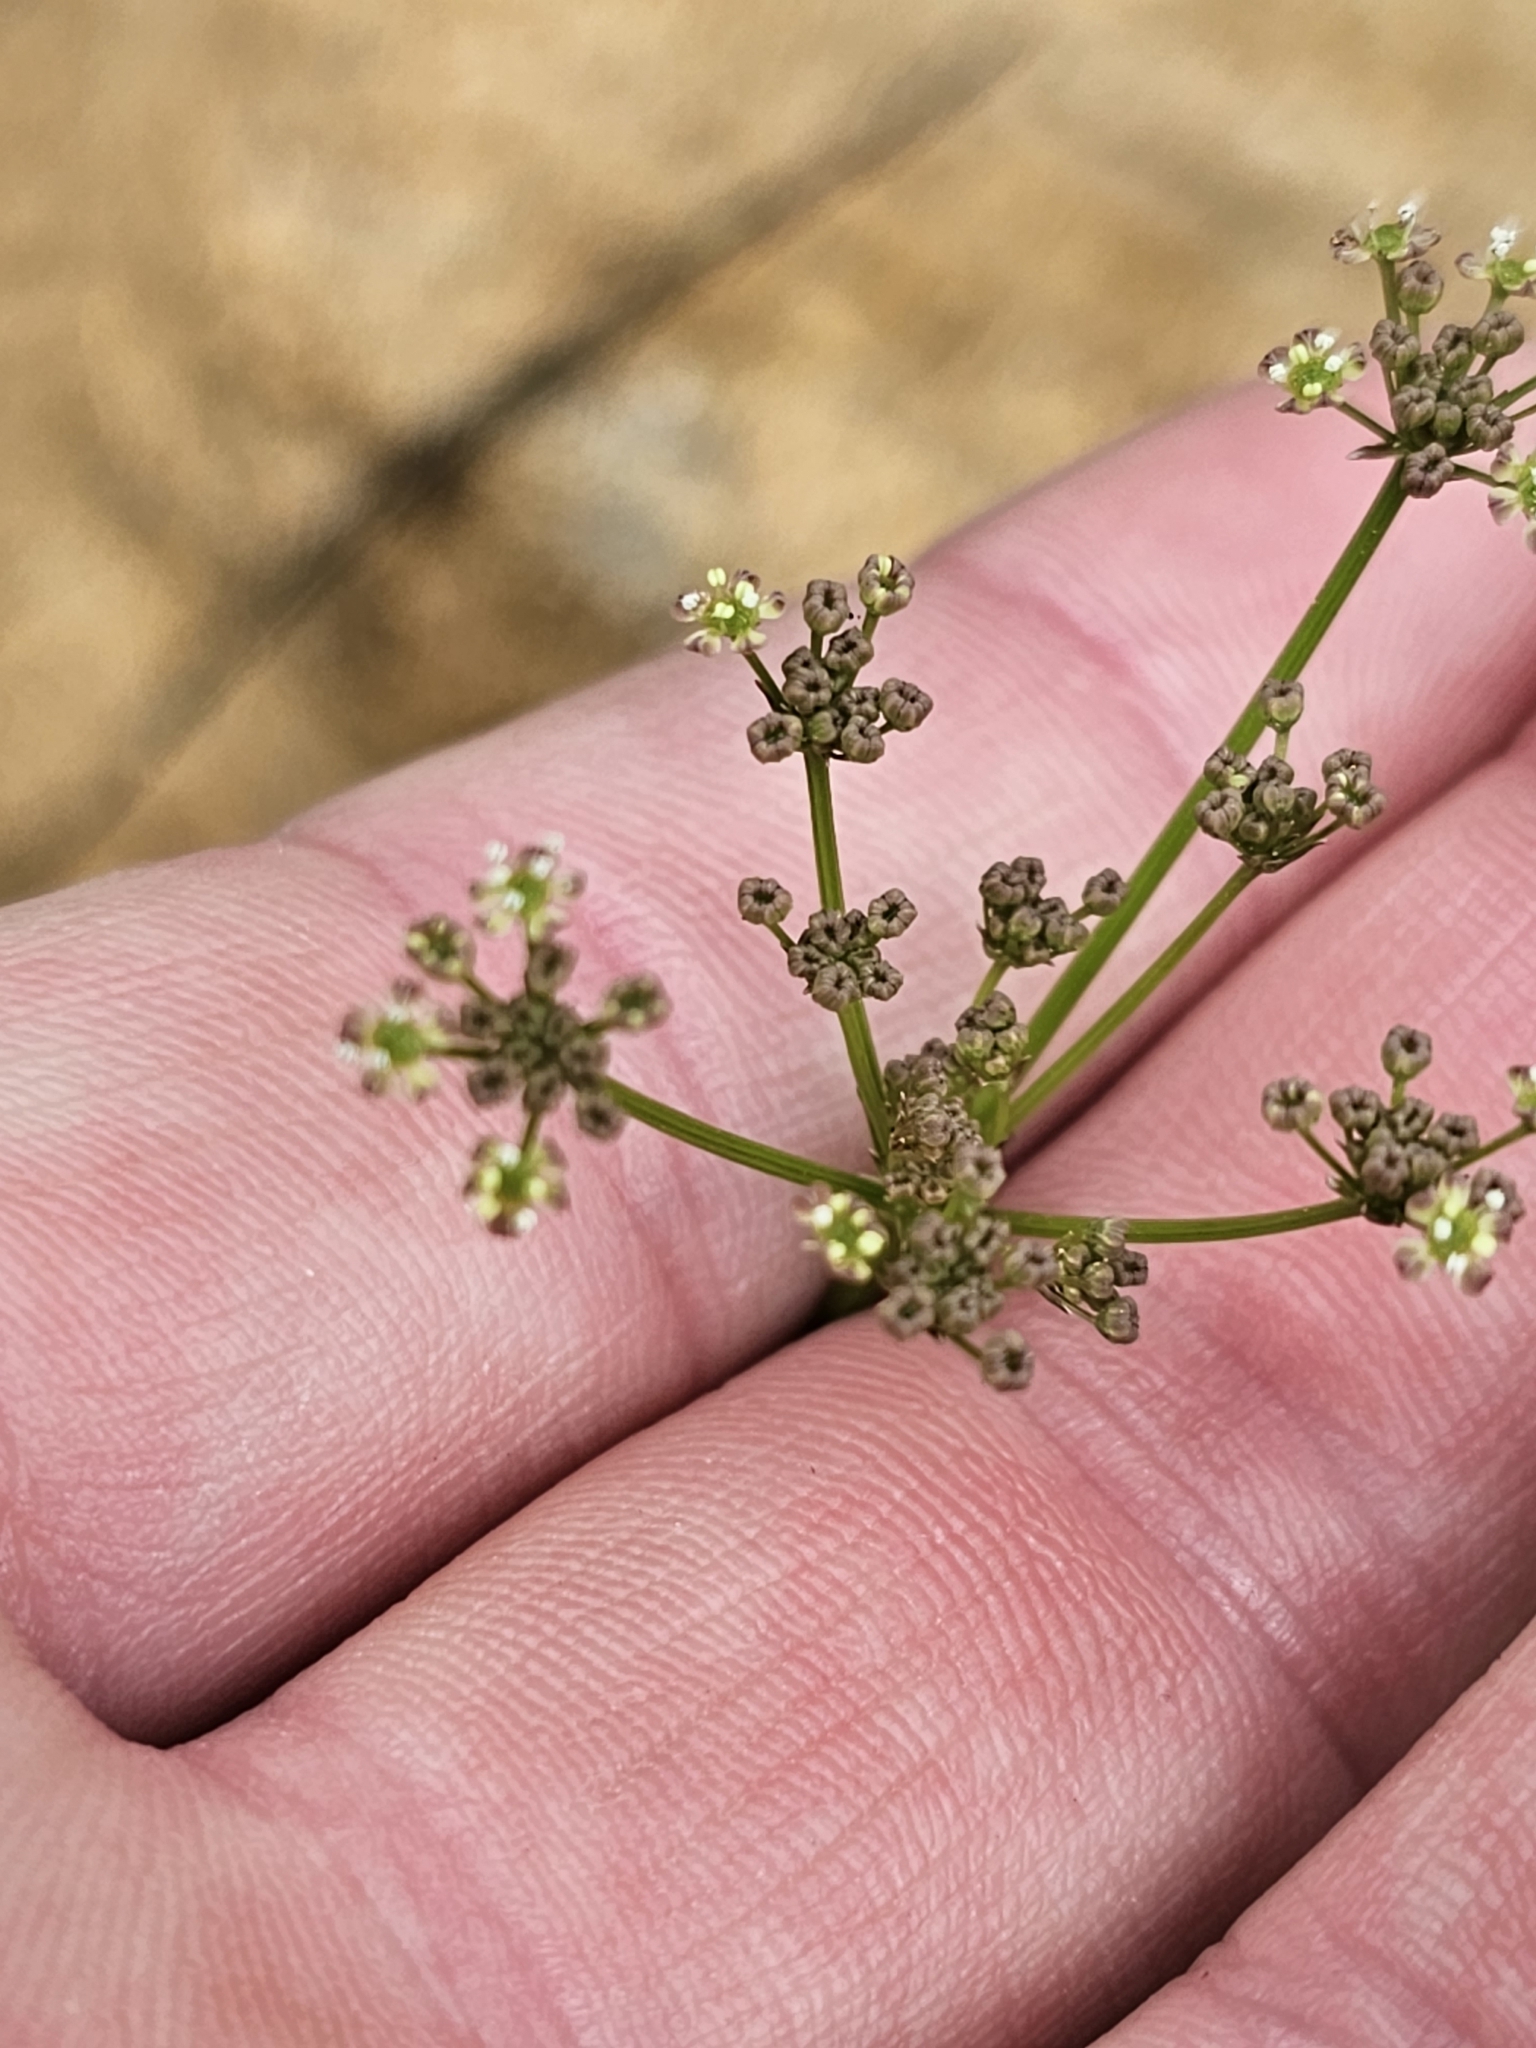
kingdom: Plantae
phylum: Tracheophyta
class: Magnoliopsida
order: Apiales
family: Apiaceae
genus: Anisotome
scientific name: Anisotome filifolia
